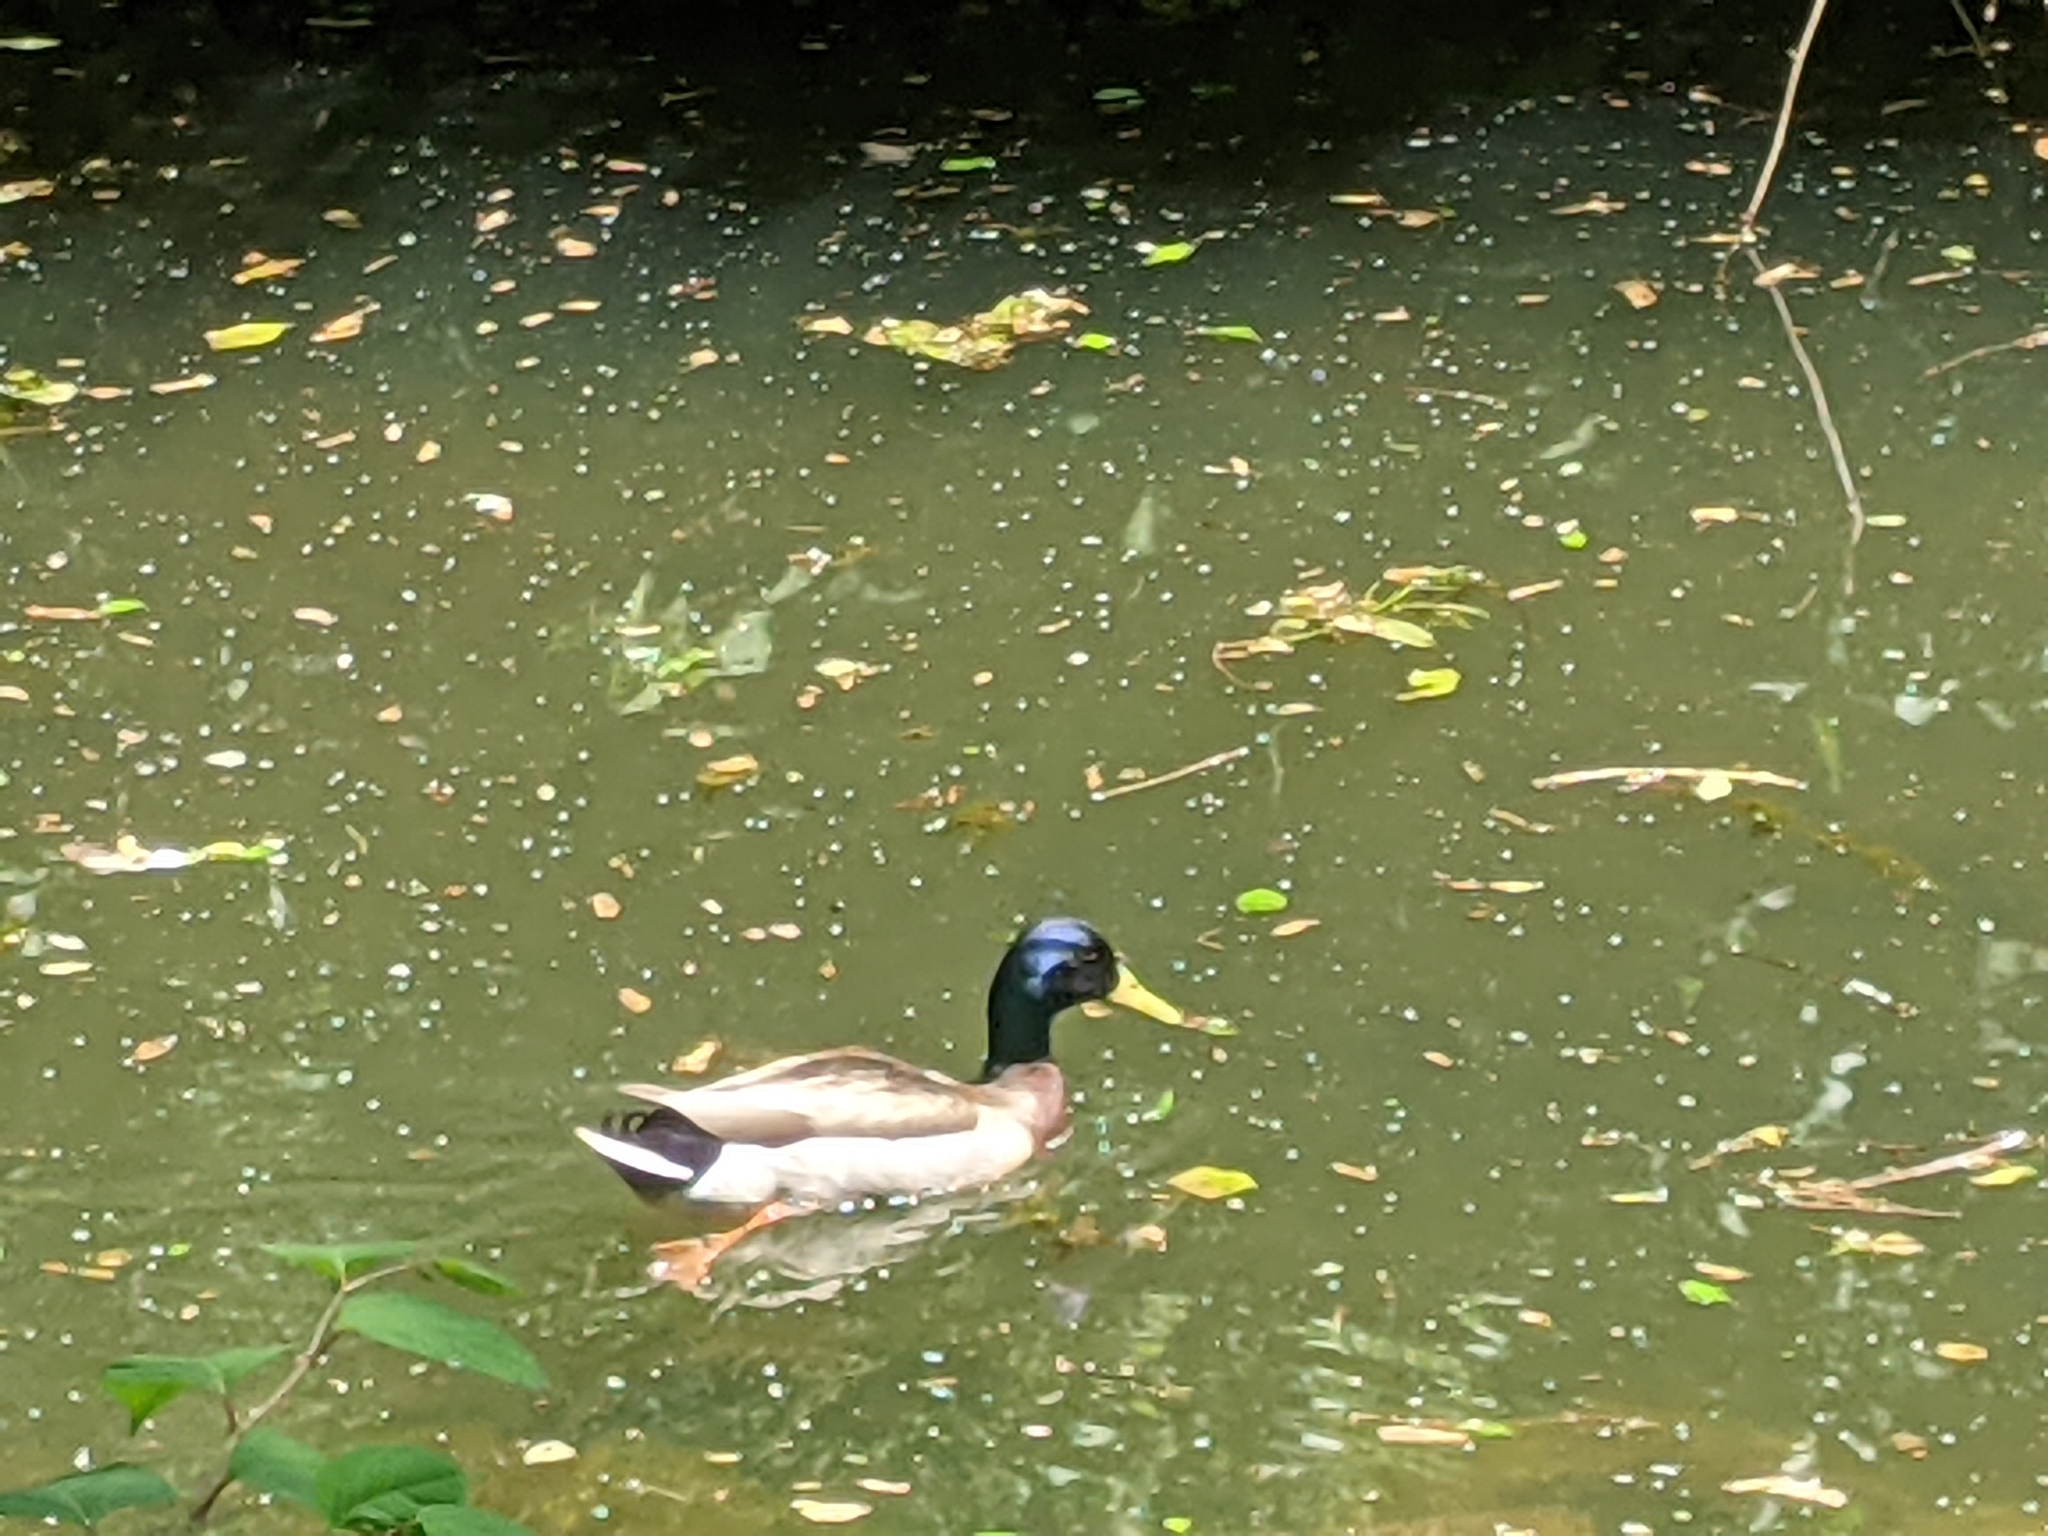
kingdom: Animalia
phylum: Chordata
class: Aves
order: Anseriformes
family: Anatidae
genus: Anas
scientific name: Anas platyrhynchos
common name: Mallard
